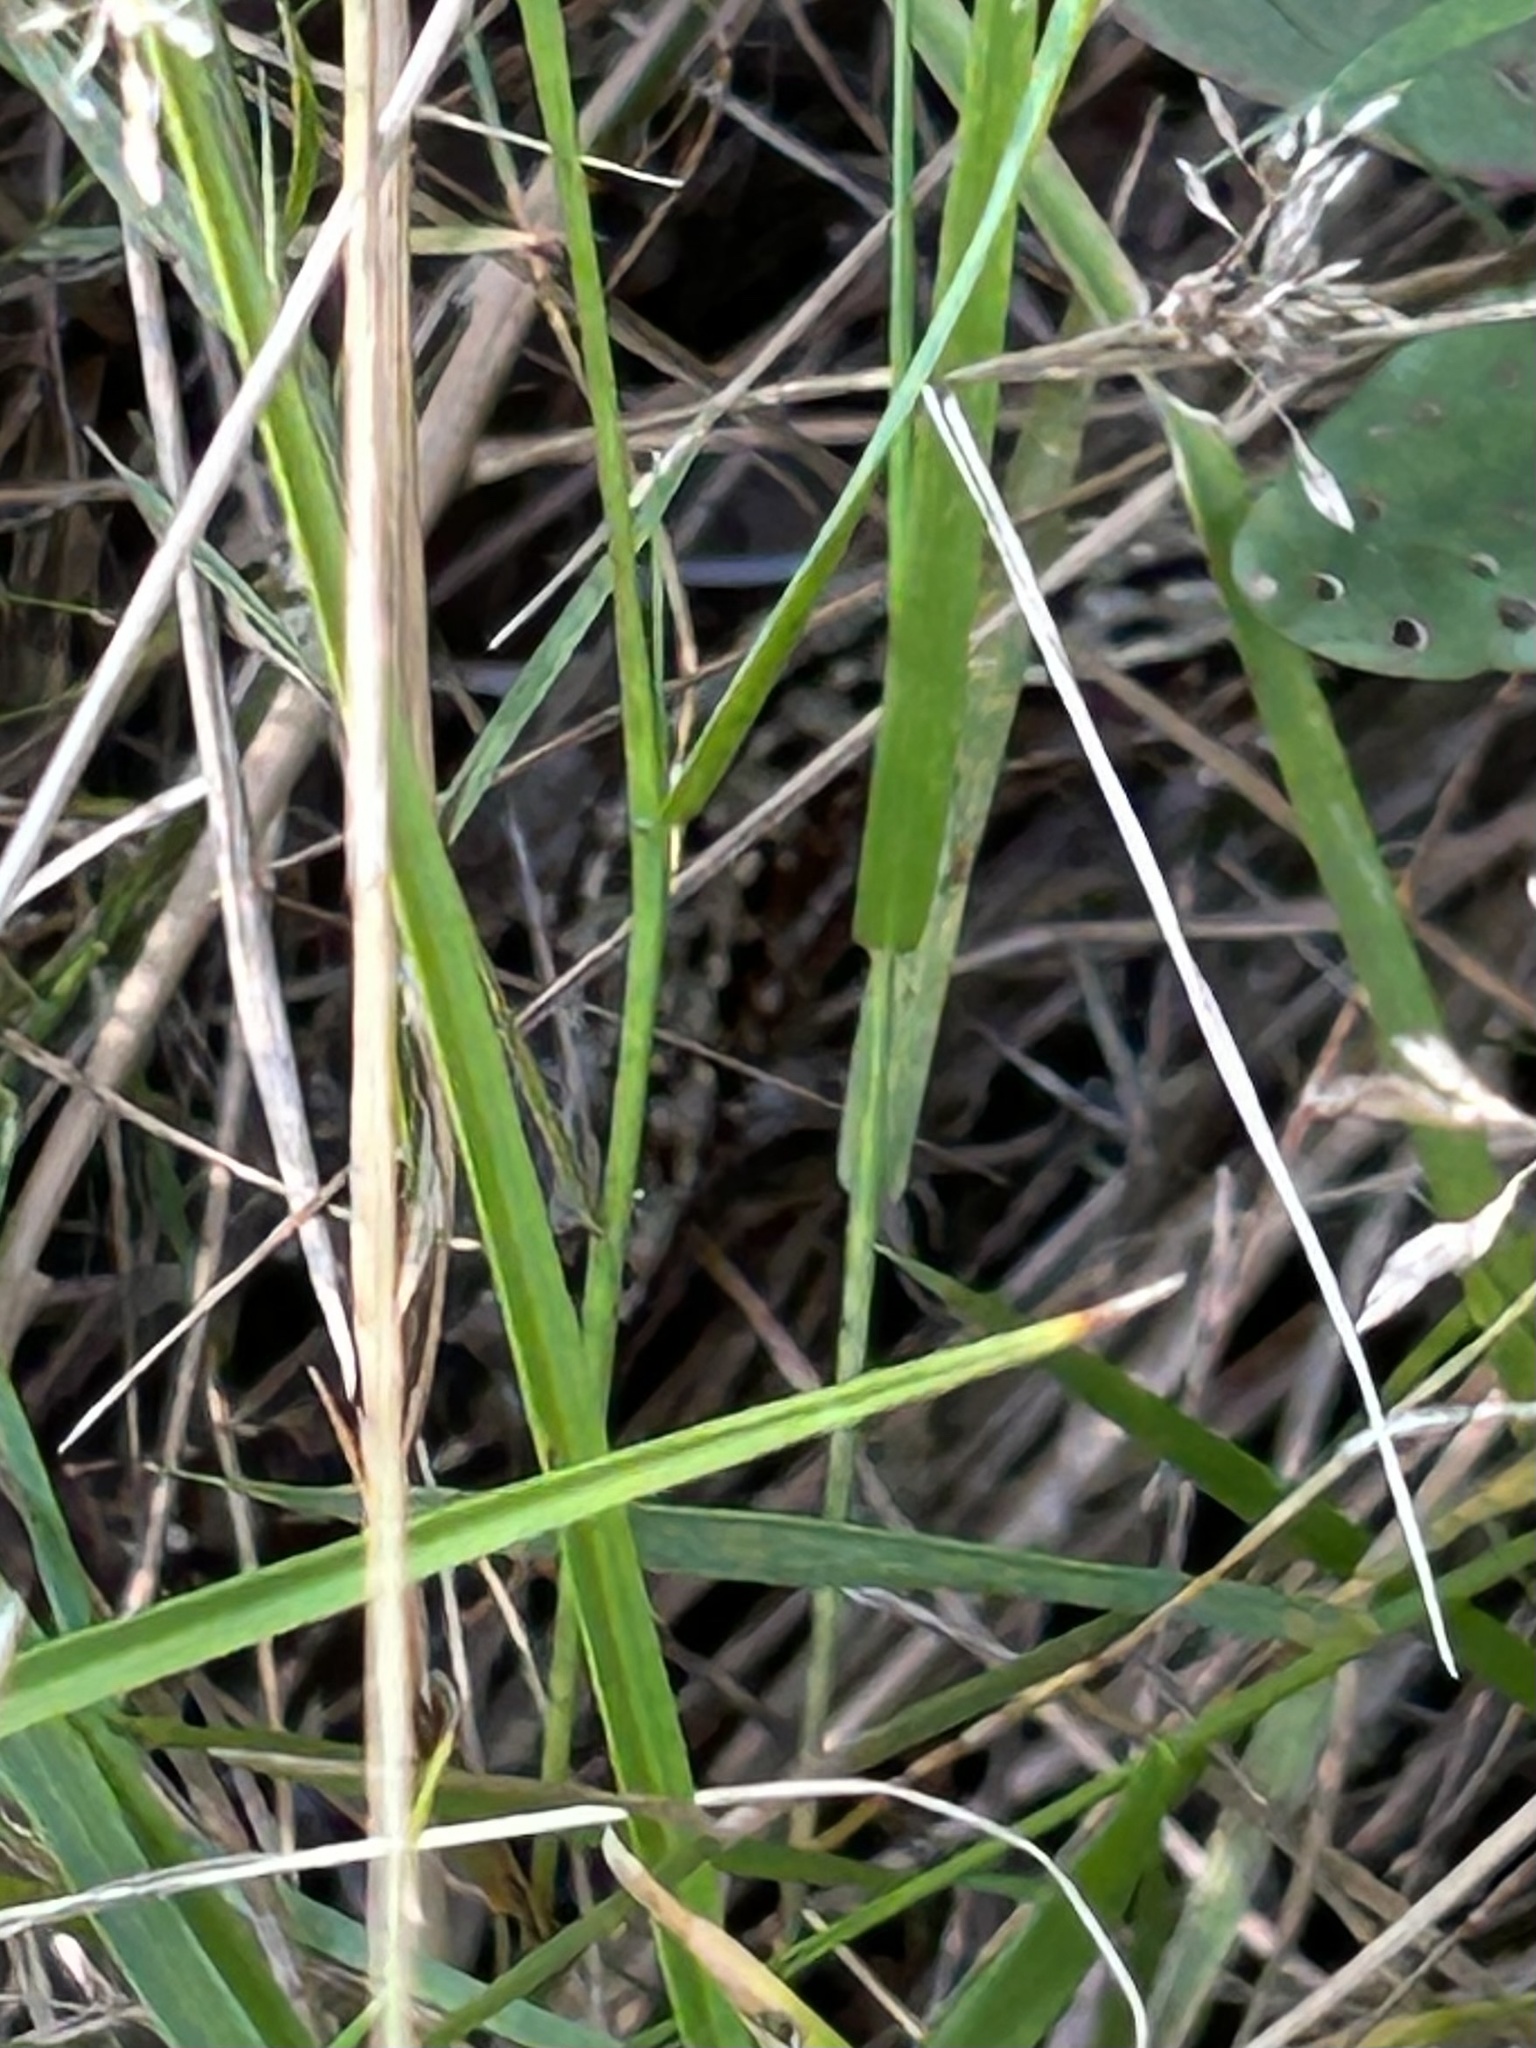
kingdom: Animalia
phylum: Chordata
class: Squamata
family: Lacertidae
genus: Zootoca
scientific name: Zootoca vivipara
